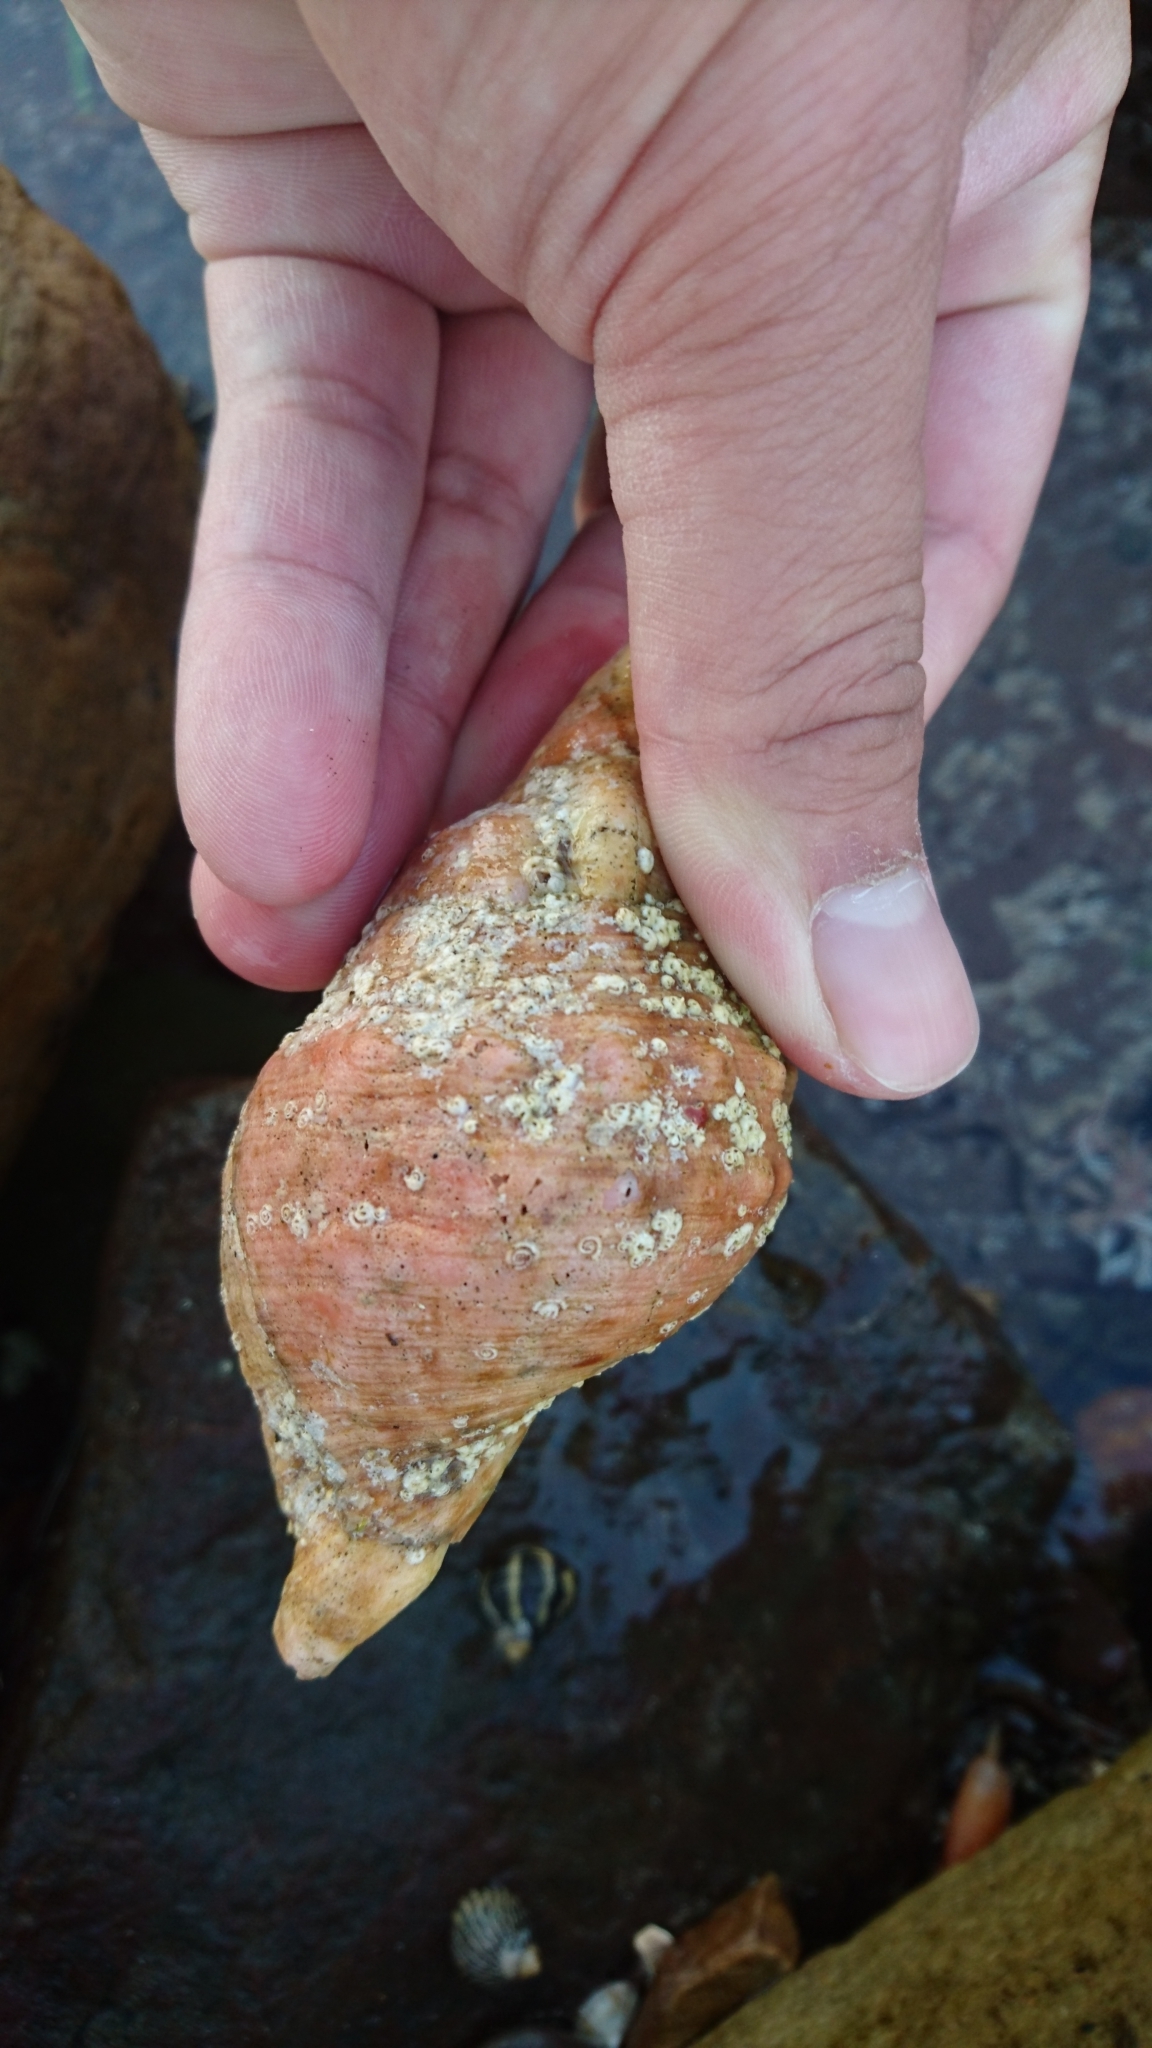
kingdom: Animalia
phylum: Mollusca
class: Gastropoda
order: Littorinimorpha
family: Charoniidae
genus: Charonia
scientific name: Charonia lampas
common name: Knobbed triton
